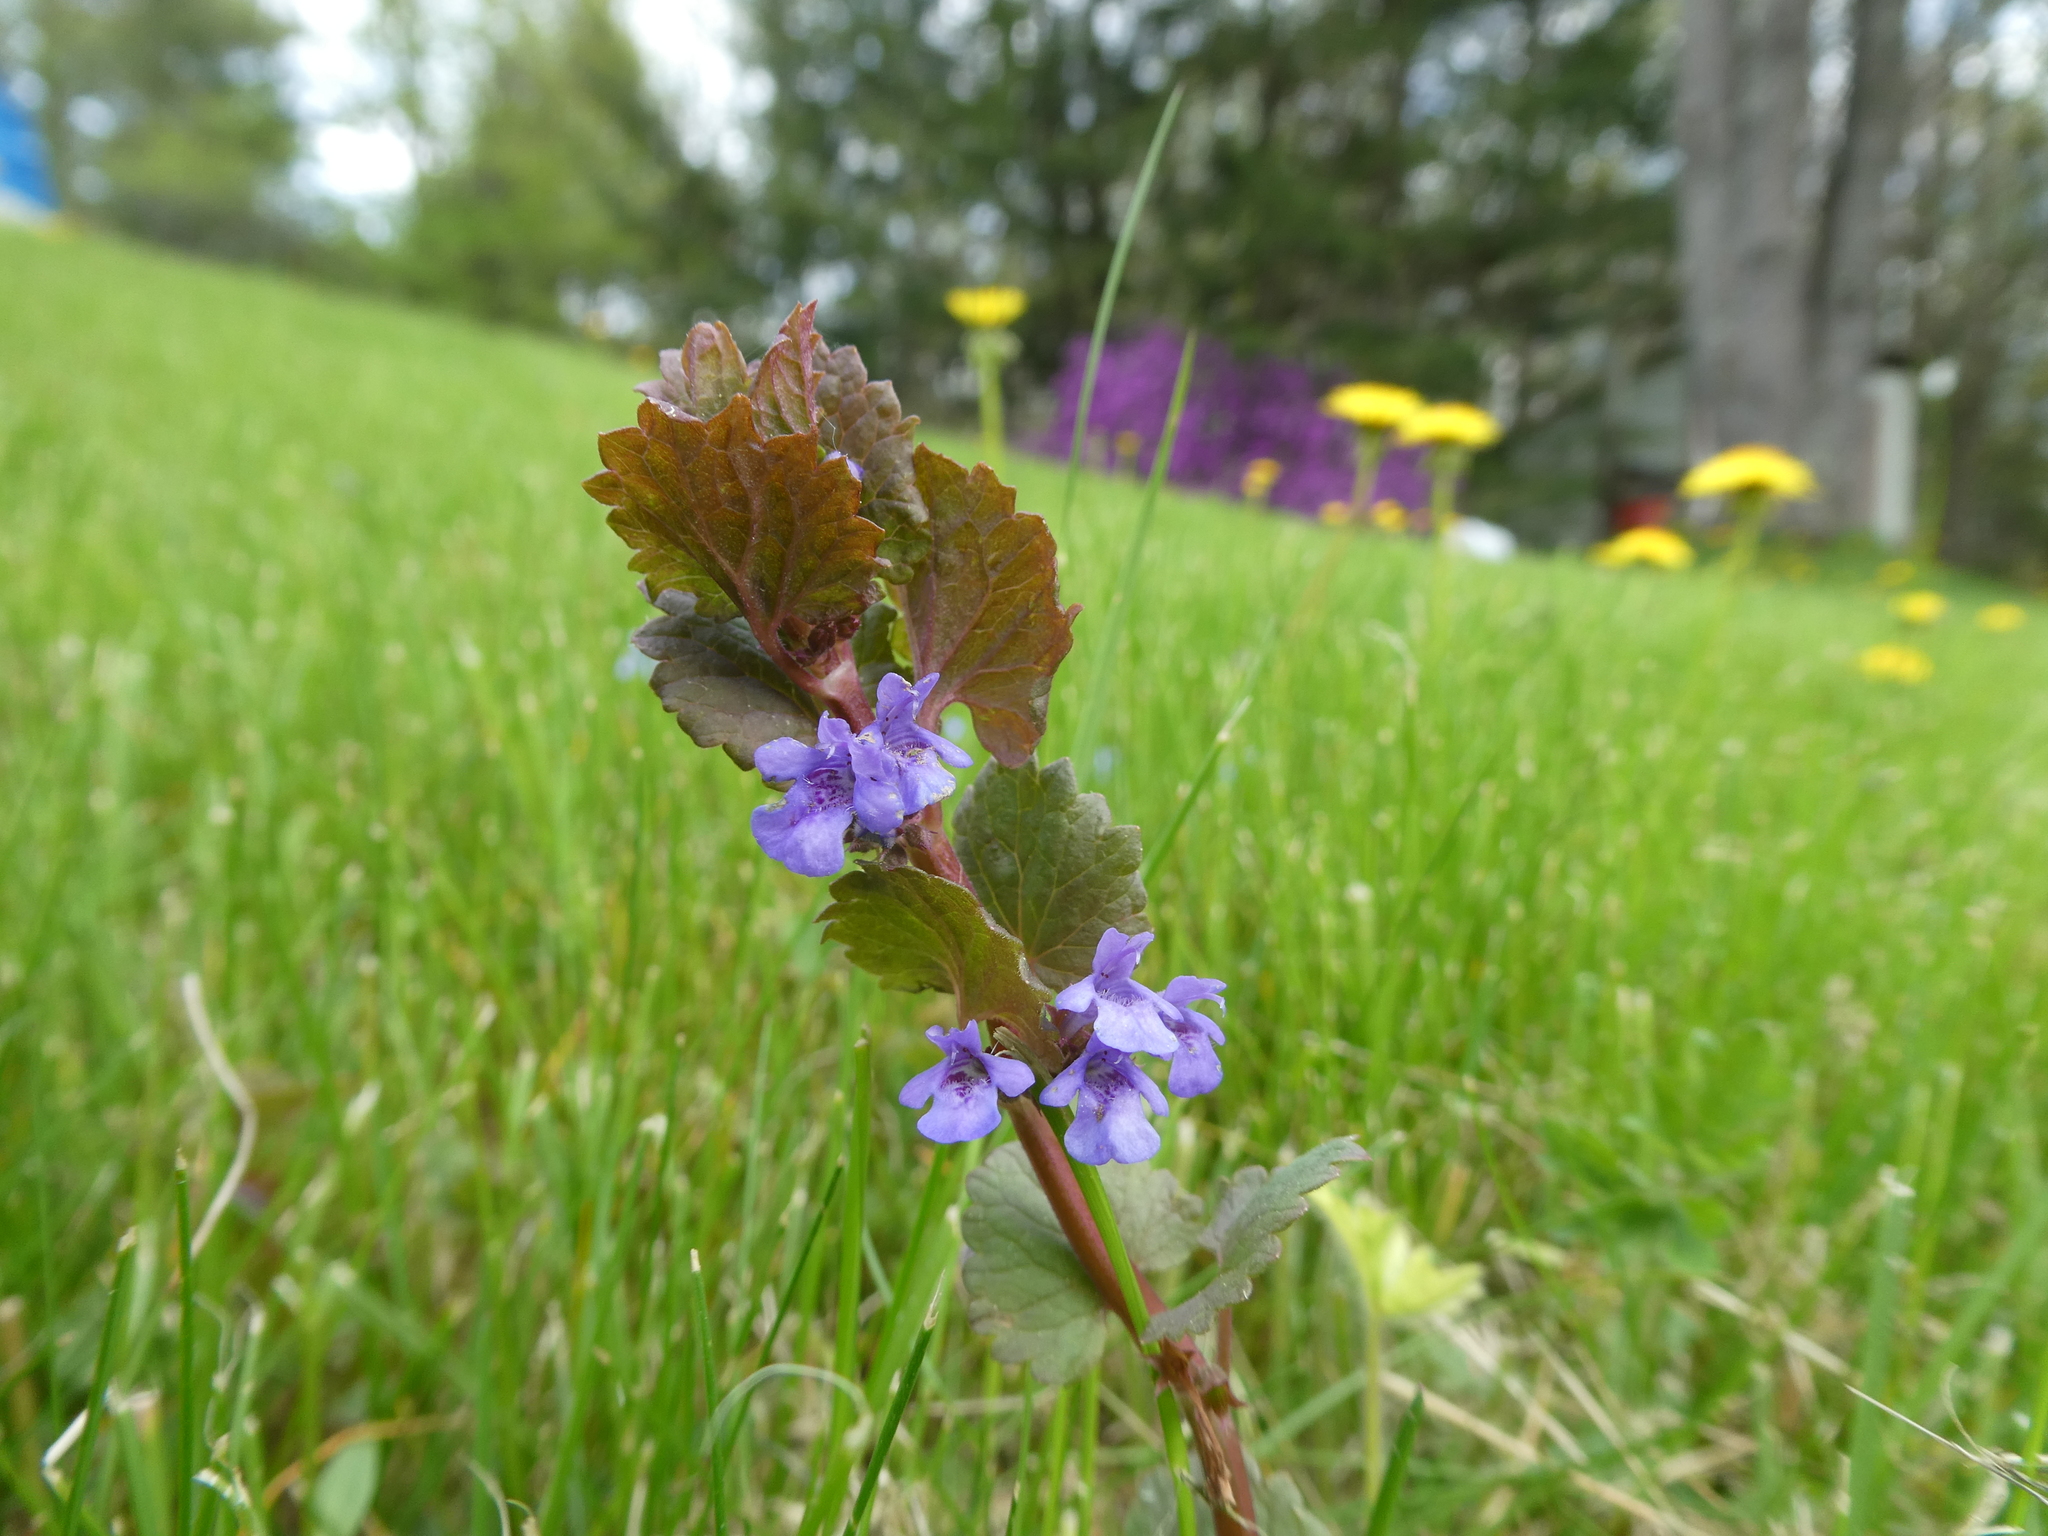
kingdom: Plantae
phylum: Tracheophyta
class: Magnoliopsida
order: Lamiales
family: Lamiaceae
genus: Glechoma
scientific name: Glechoma hederacea
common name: Ground ivy
